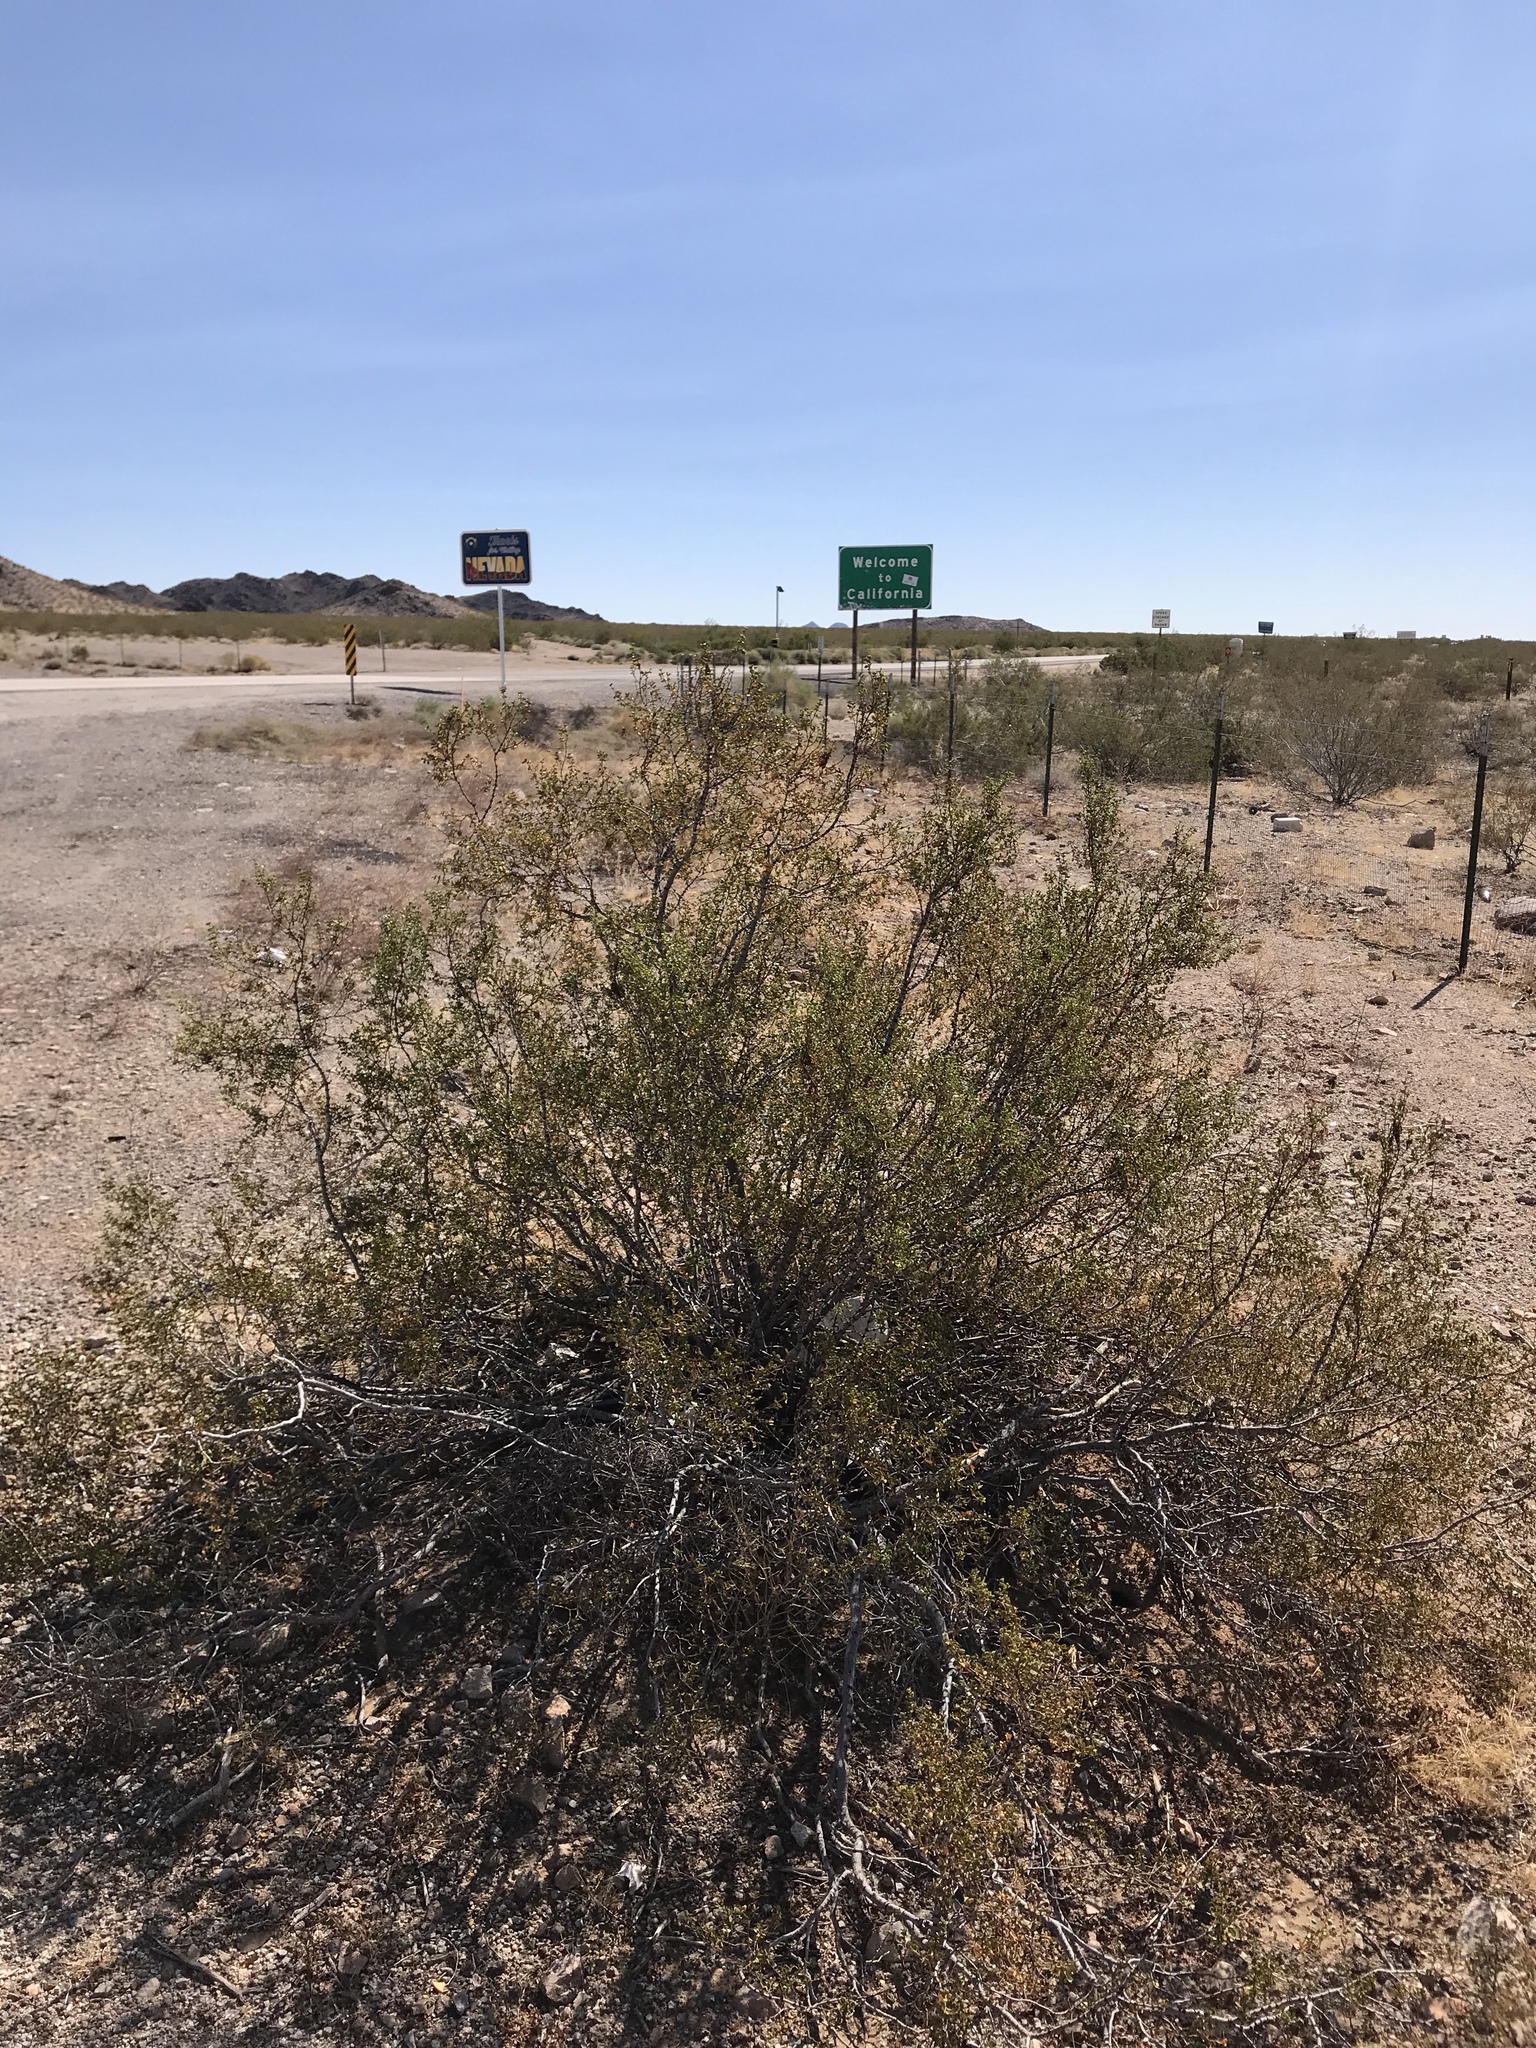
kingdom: Plantae
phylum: Tracheophyta
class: Magnoliopsida
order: Zygophyllales
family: Zygophyllaceae
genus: Larrea
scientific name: Larrea tridentata
